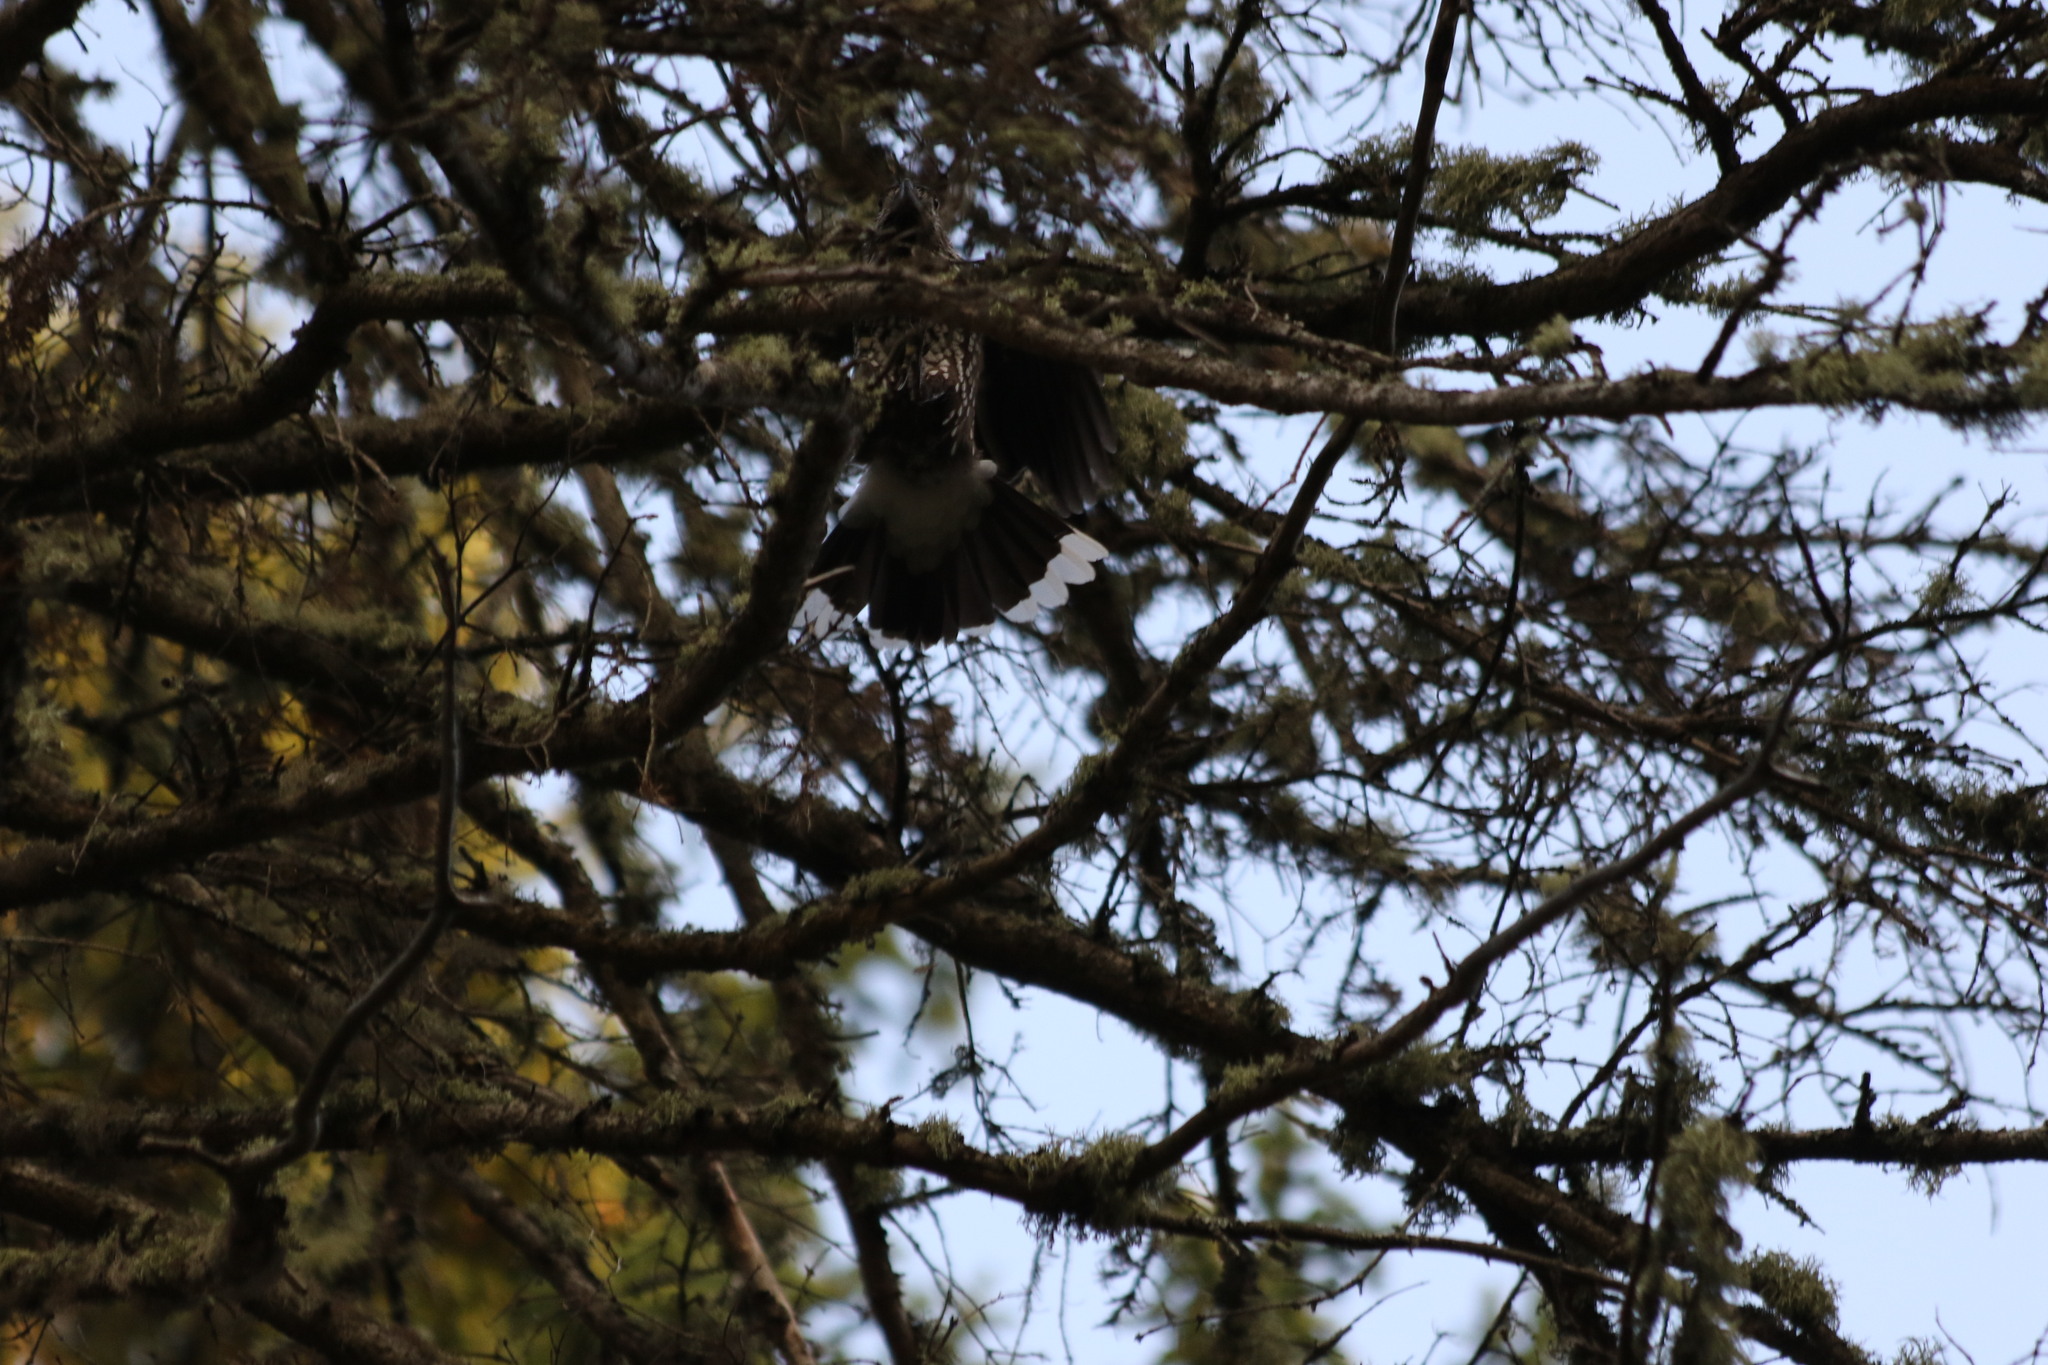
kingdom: Animalia
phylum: Chordata
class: Aves
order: Passeriformes
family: Corvidae
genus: Nucifraga
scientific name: Nucifraga caryocatactes
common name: Spotted nutcracker
